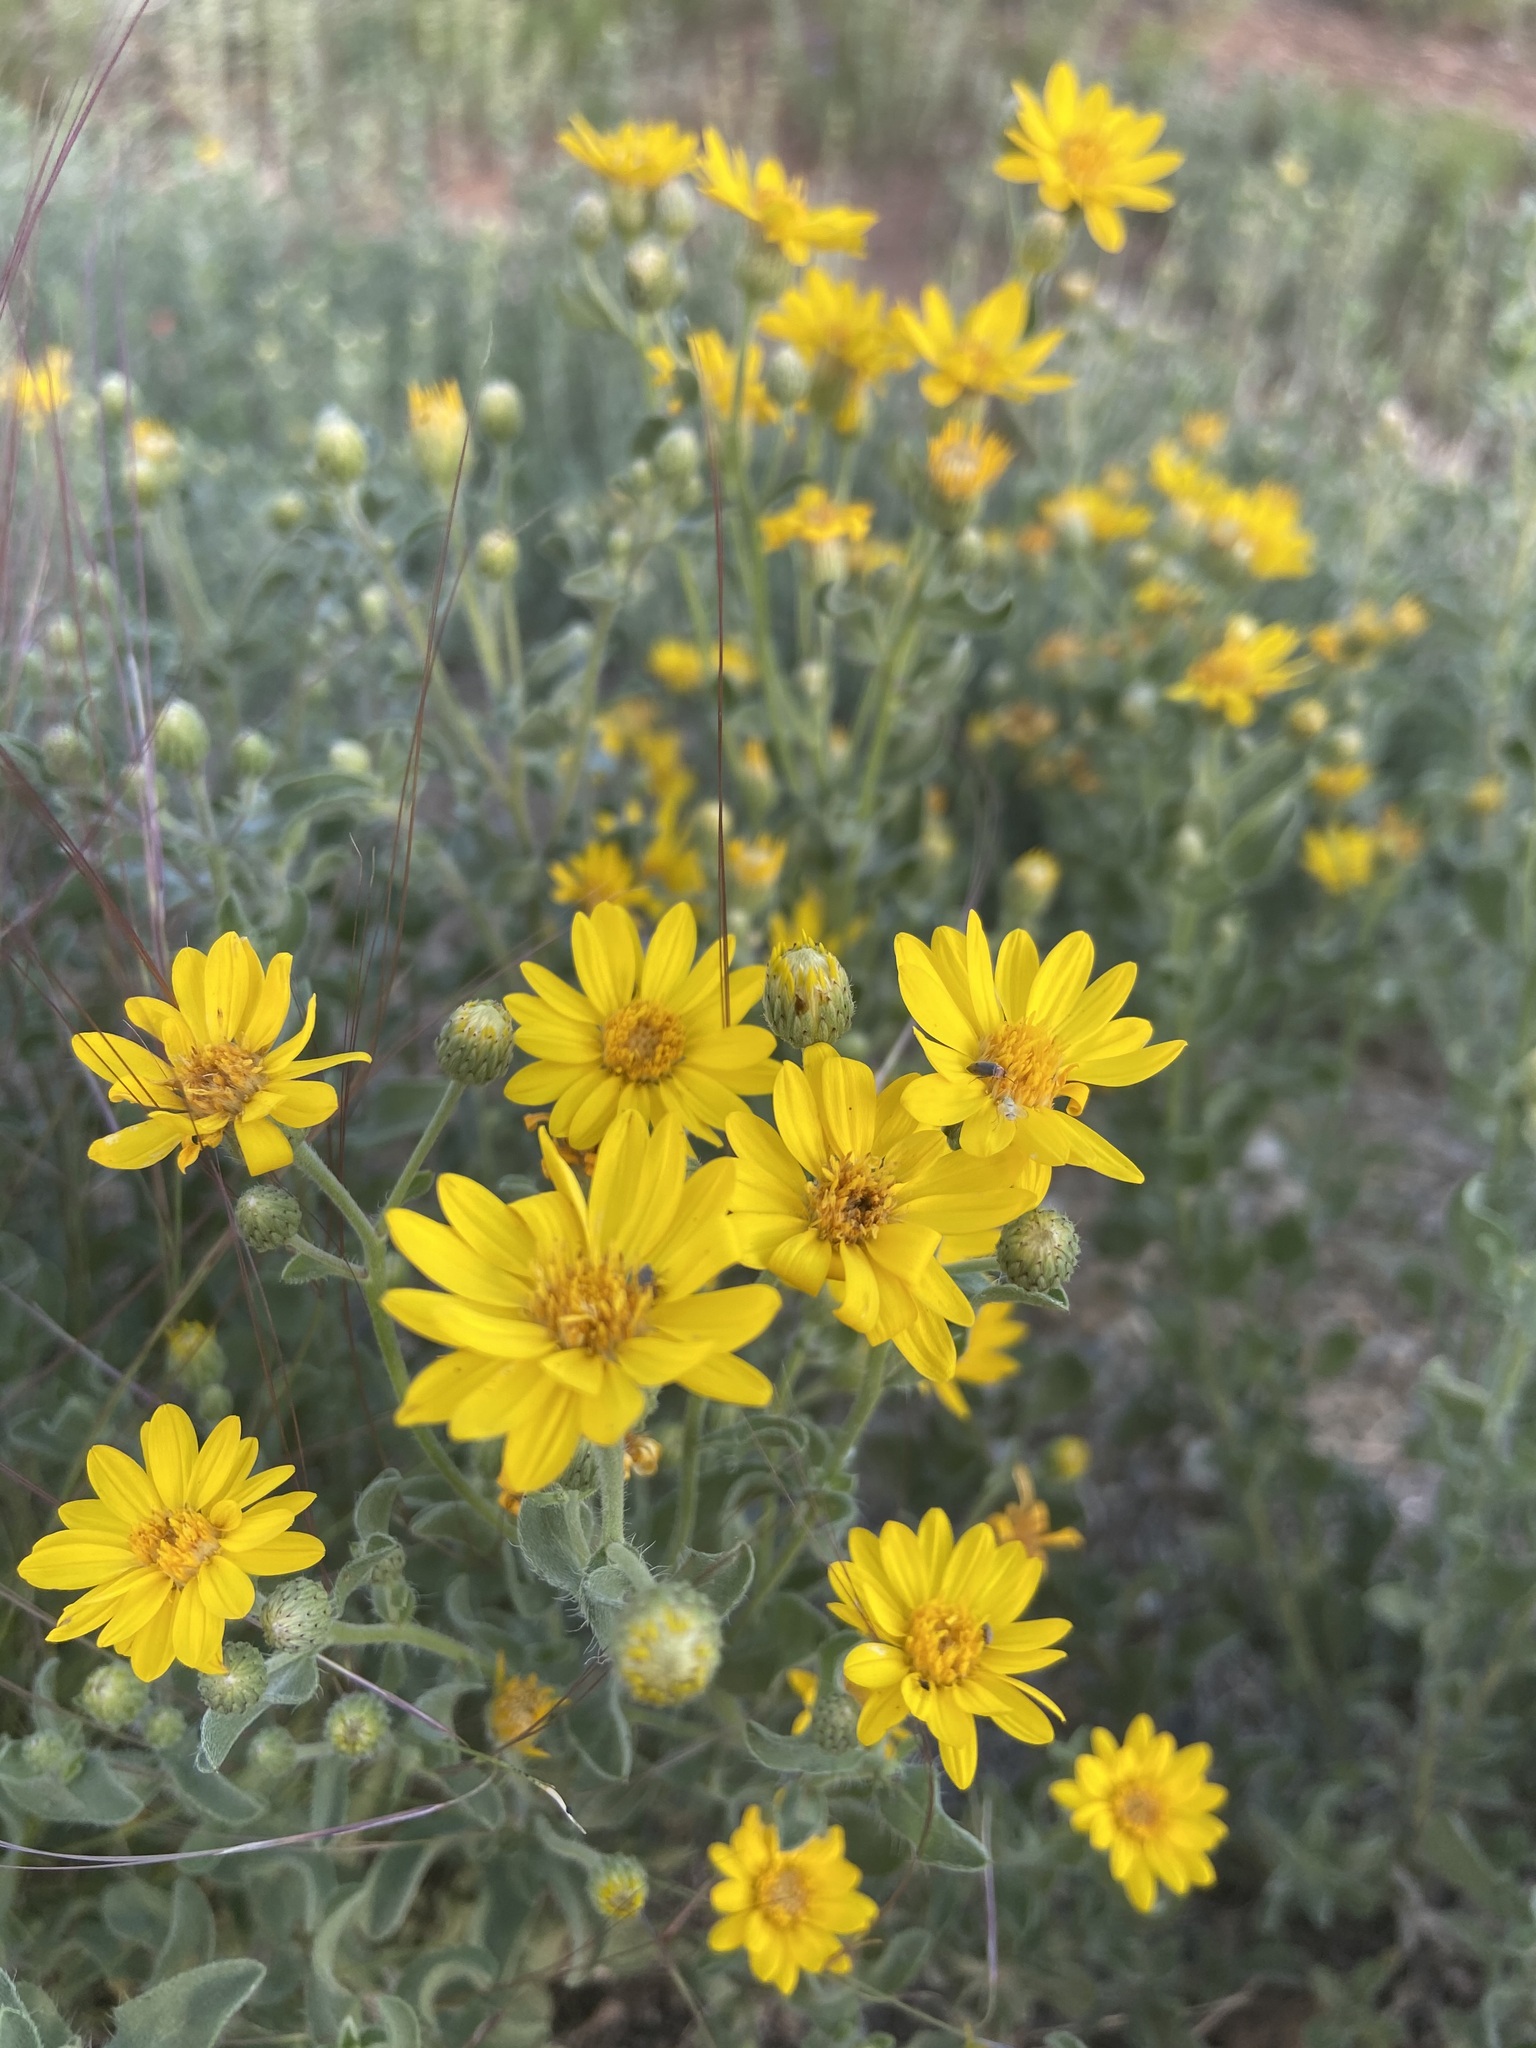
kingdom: Plantae
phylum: Tracheophyta
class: Magnoliopsida
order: Asterales
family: Asteraceae
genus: Heterotheca
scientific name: Heterotheca zionensis
